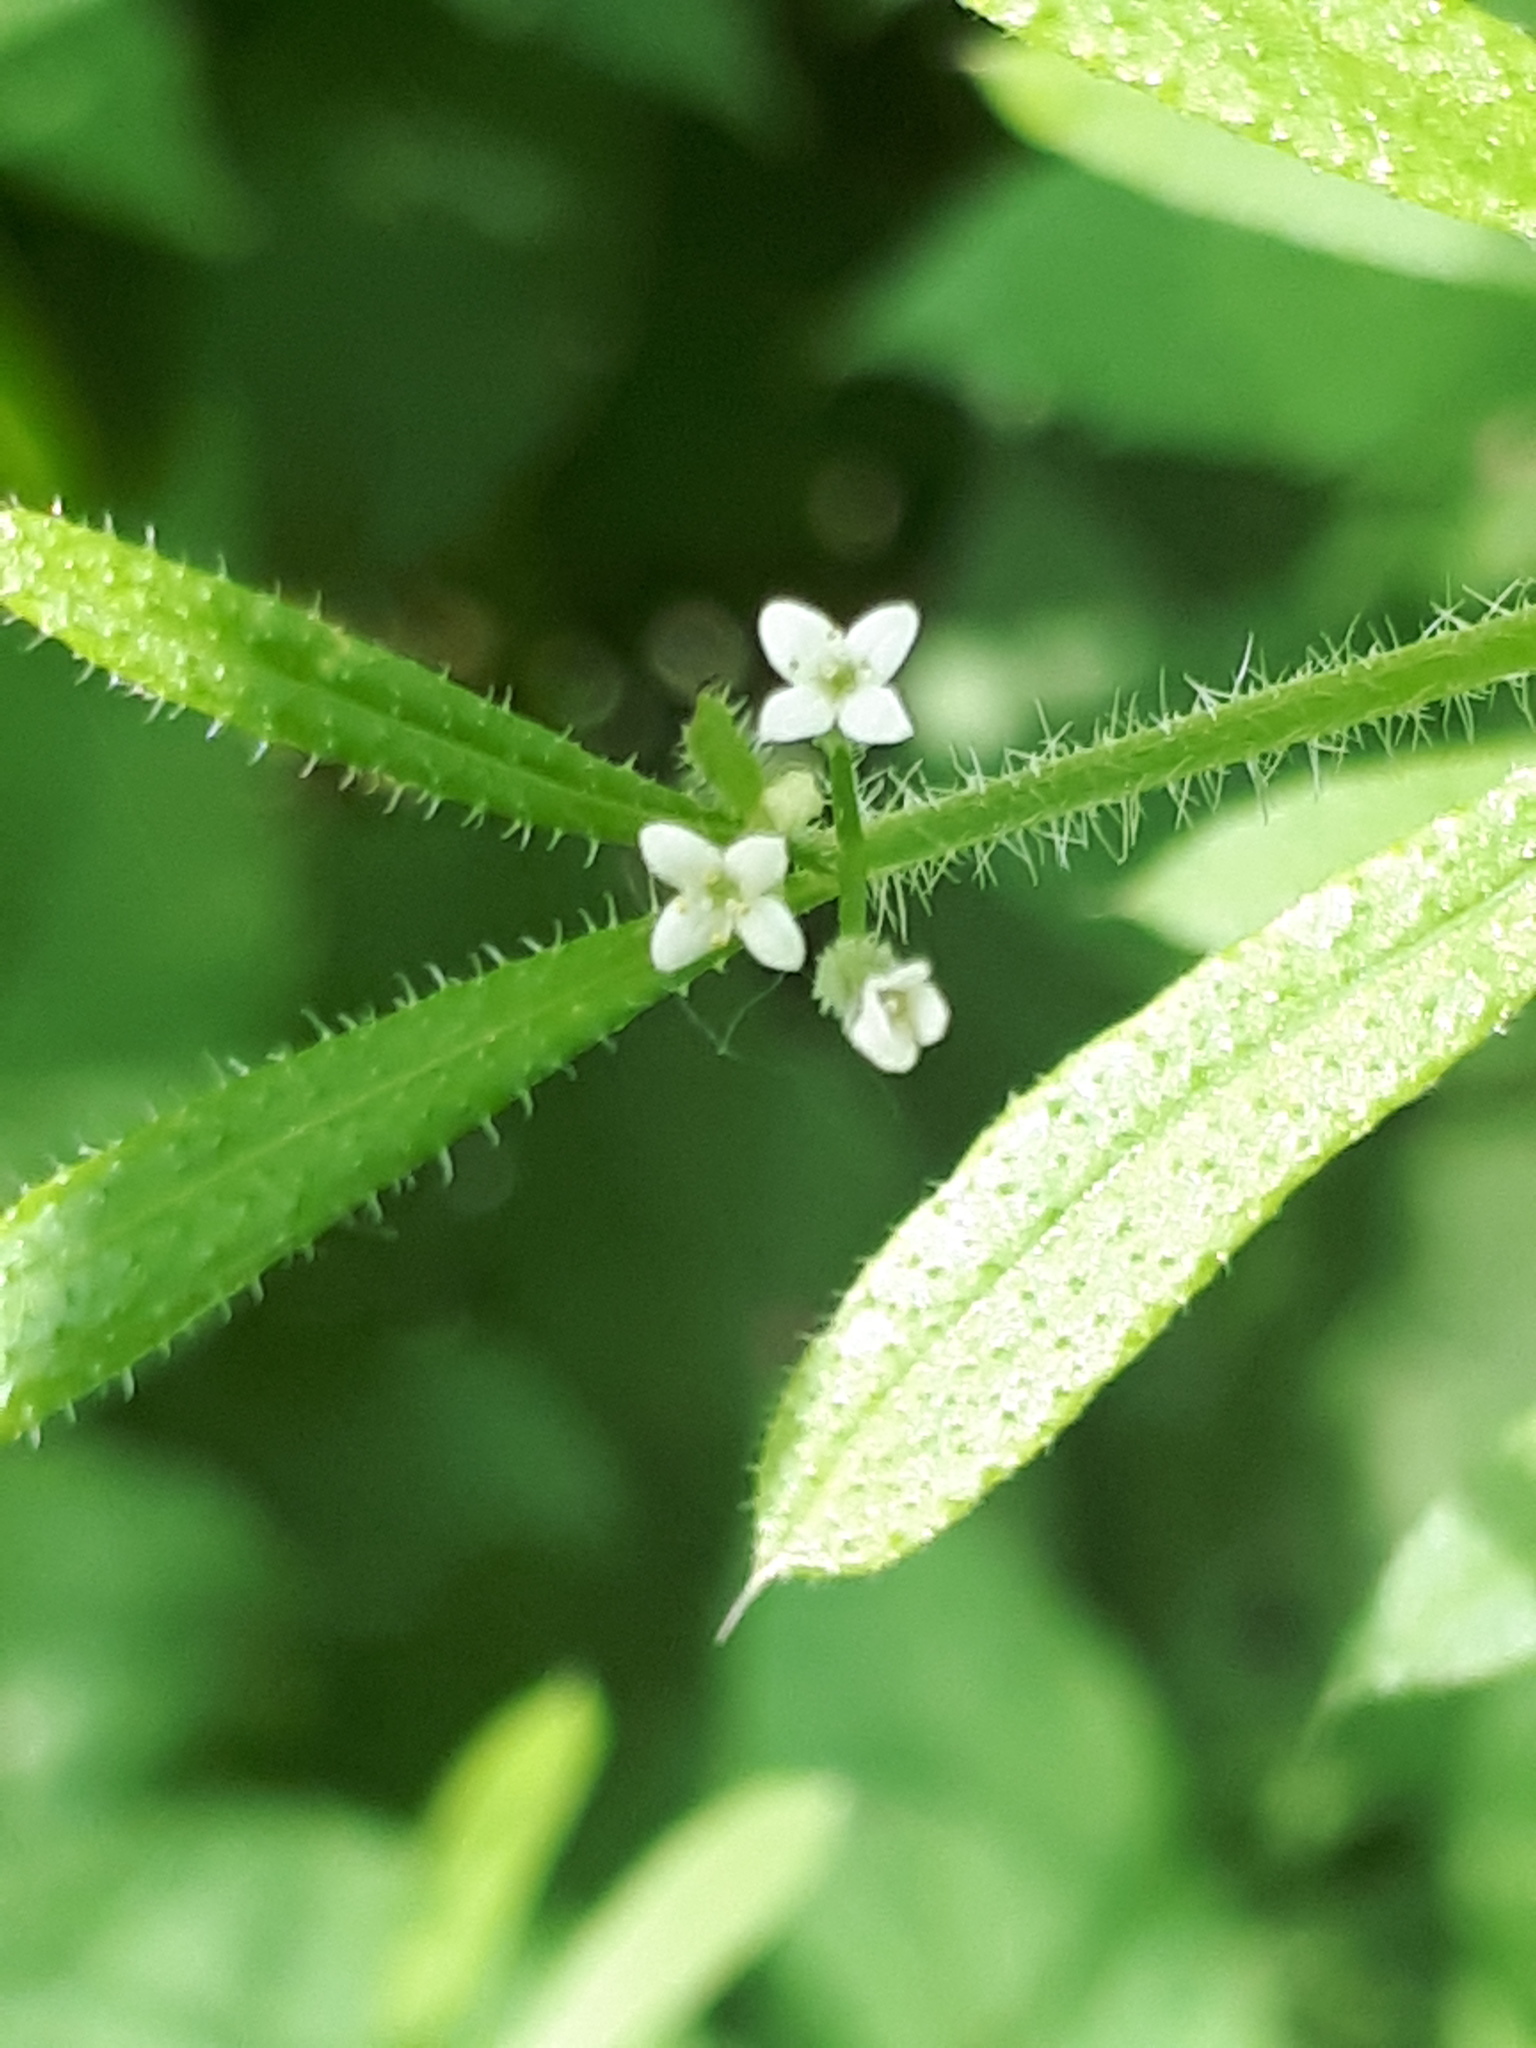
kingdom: Plantae
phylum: Tracheophyta
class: Magnoliopsida
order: Gentianales
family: Rubiaceae
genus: Galium
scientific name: Galium aparine
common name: Cleavers
